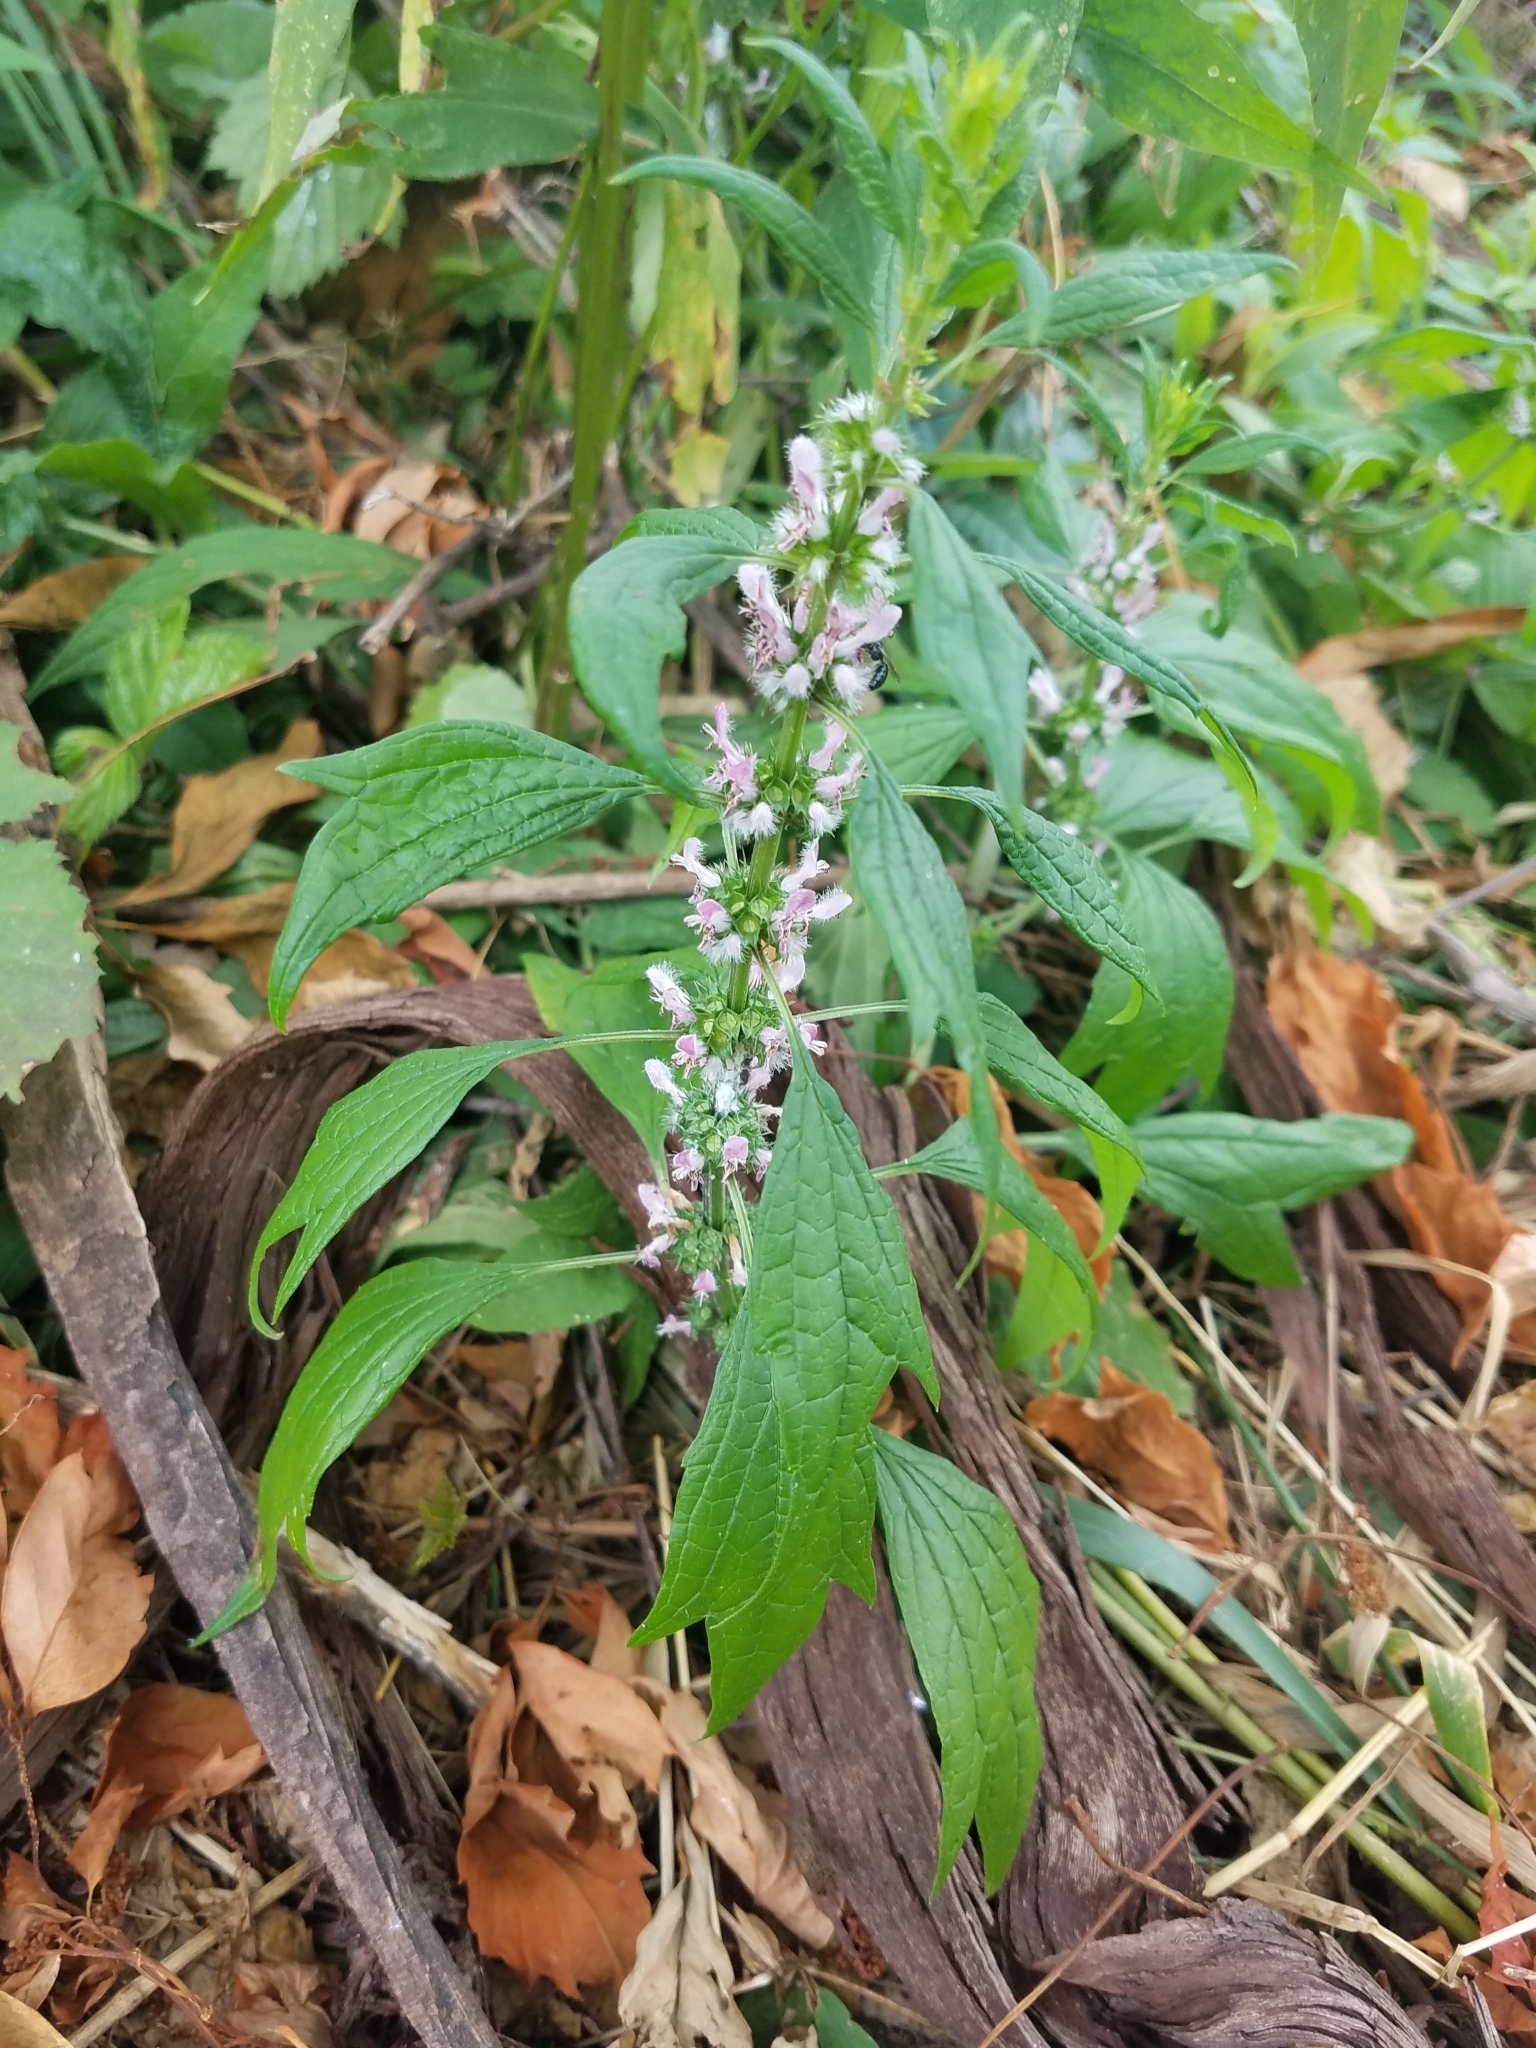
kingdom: Plantae
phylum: Tracheophyta
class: Magnoliopsida
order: Lamiales
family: Lamiaceae
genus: Leonurus
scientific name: Leonurus cardiaca
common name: Motherwort
